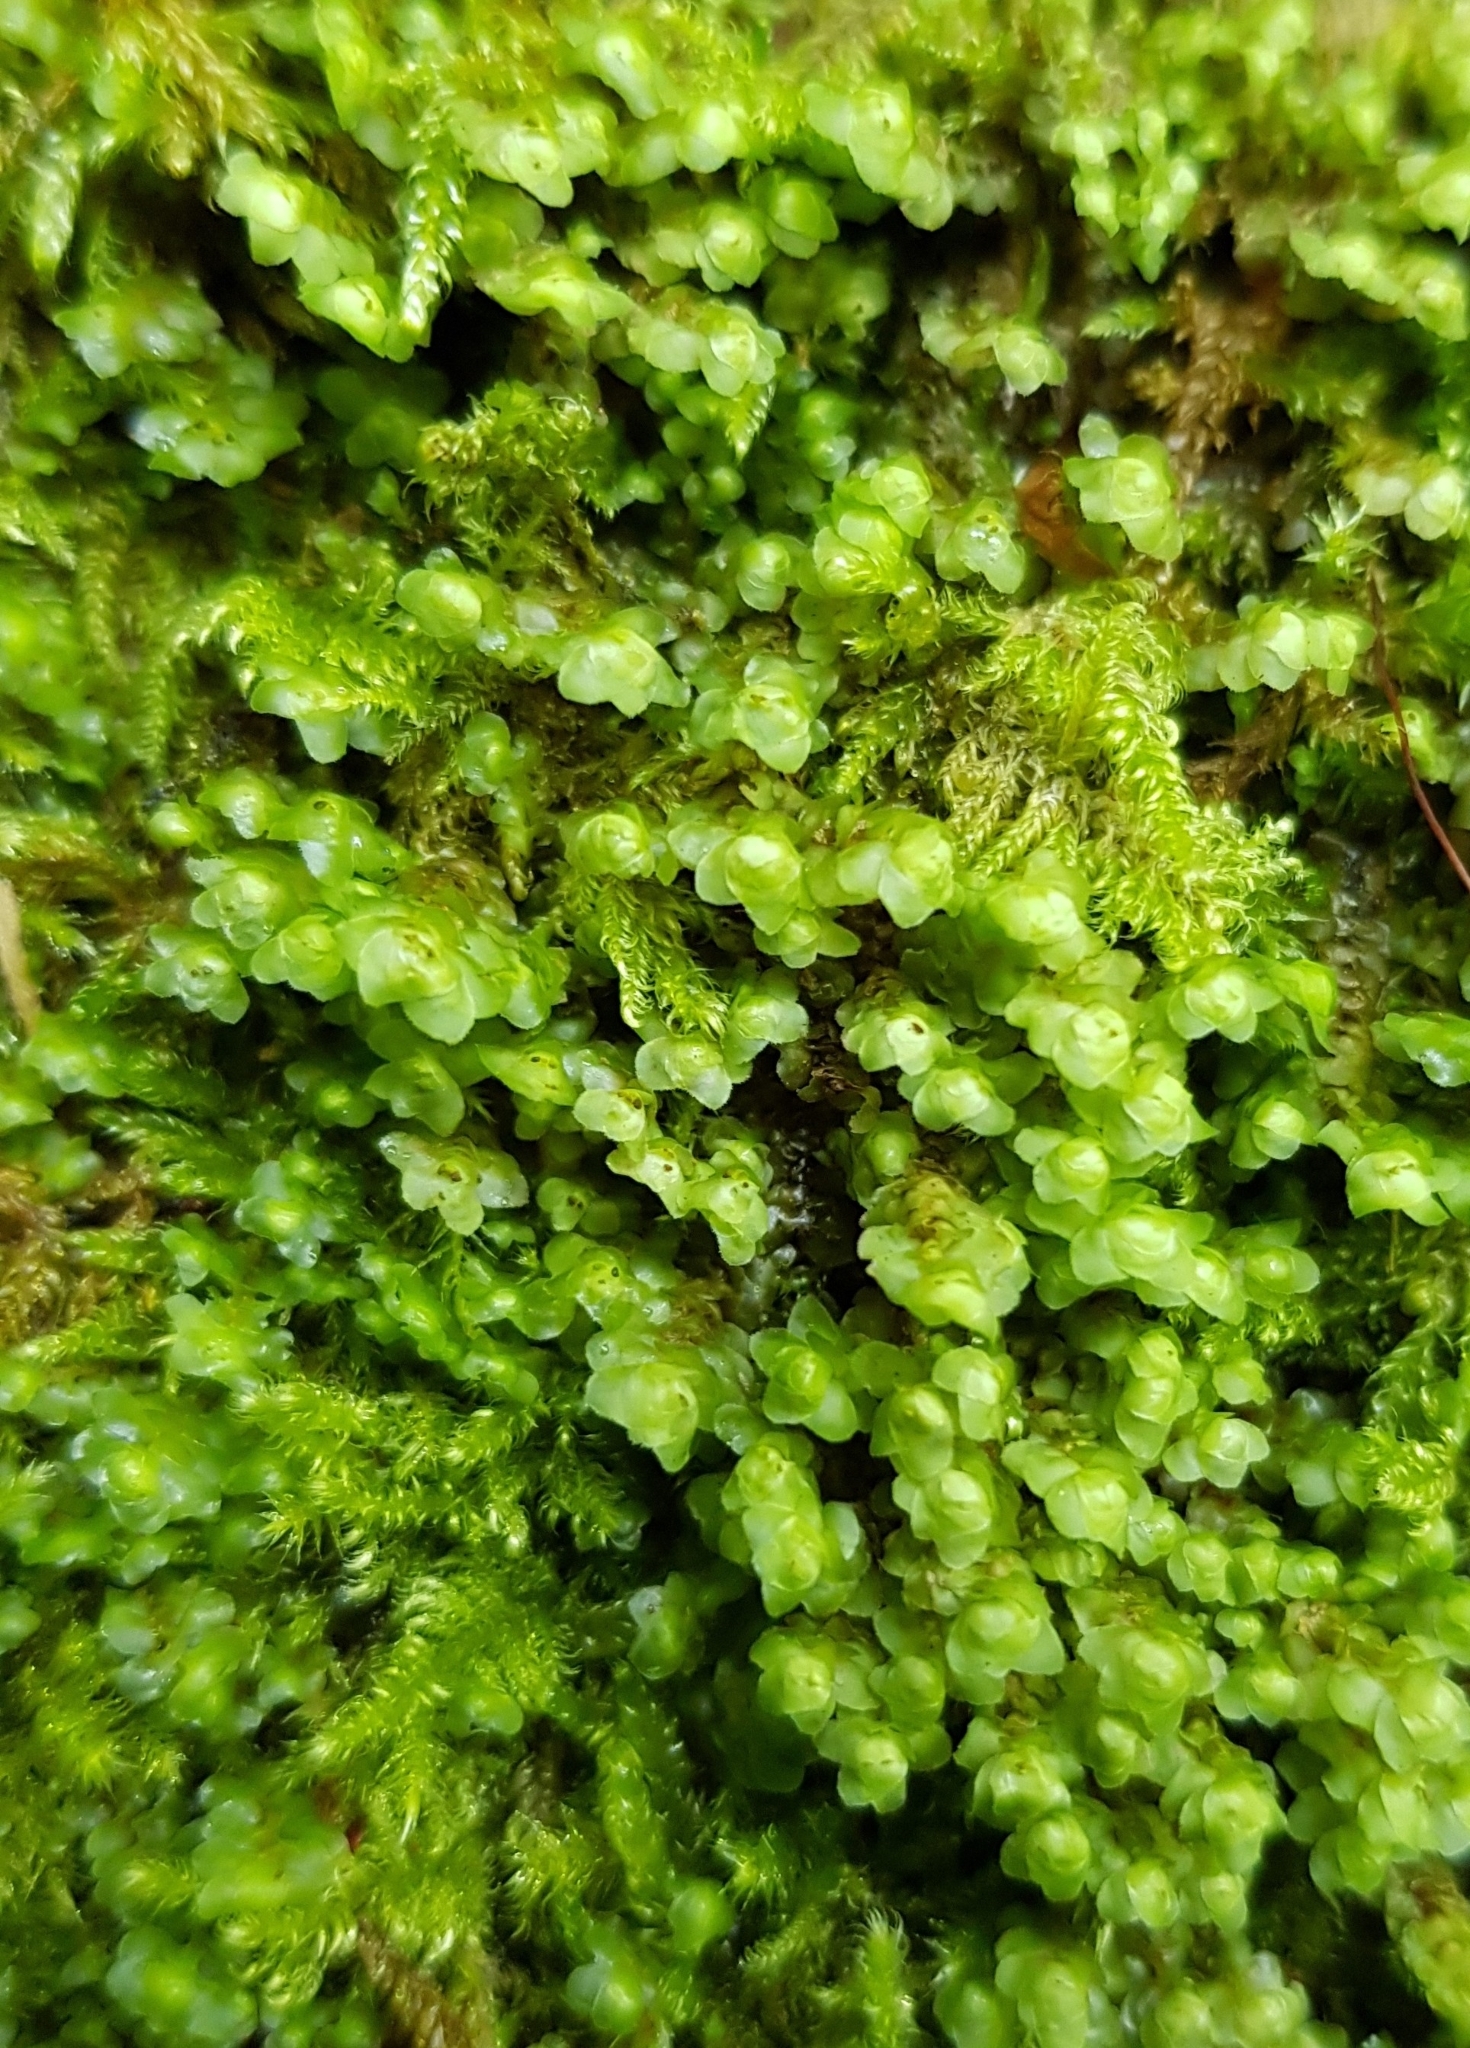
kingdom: Plantae
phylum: Marchantiophyta
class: Jungermanniopsida
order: Jungermanniales
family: Scapaniaceae
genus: Scapania
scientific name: Scapania nemorea
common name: Grove earwort
